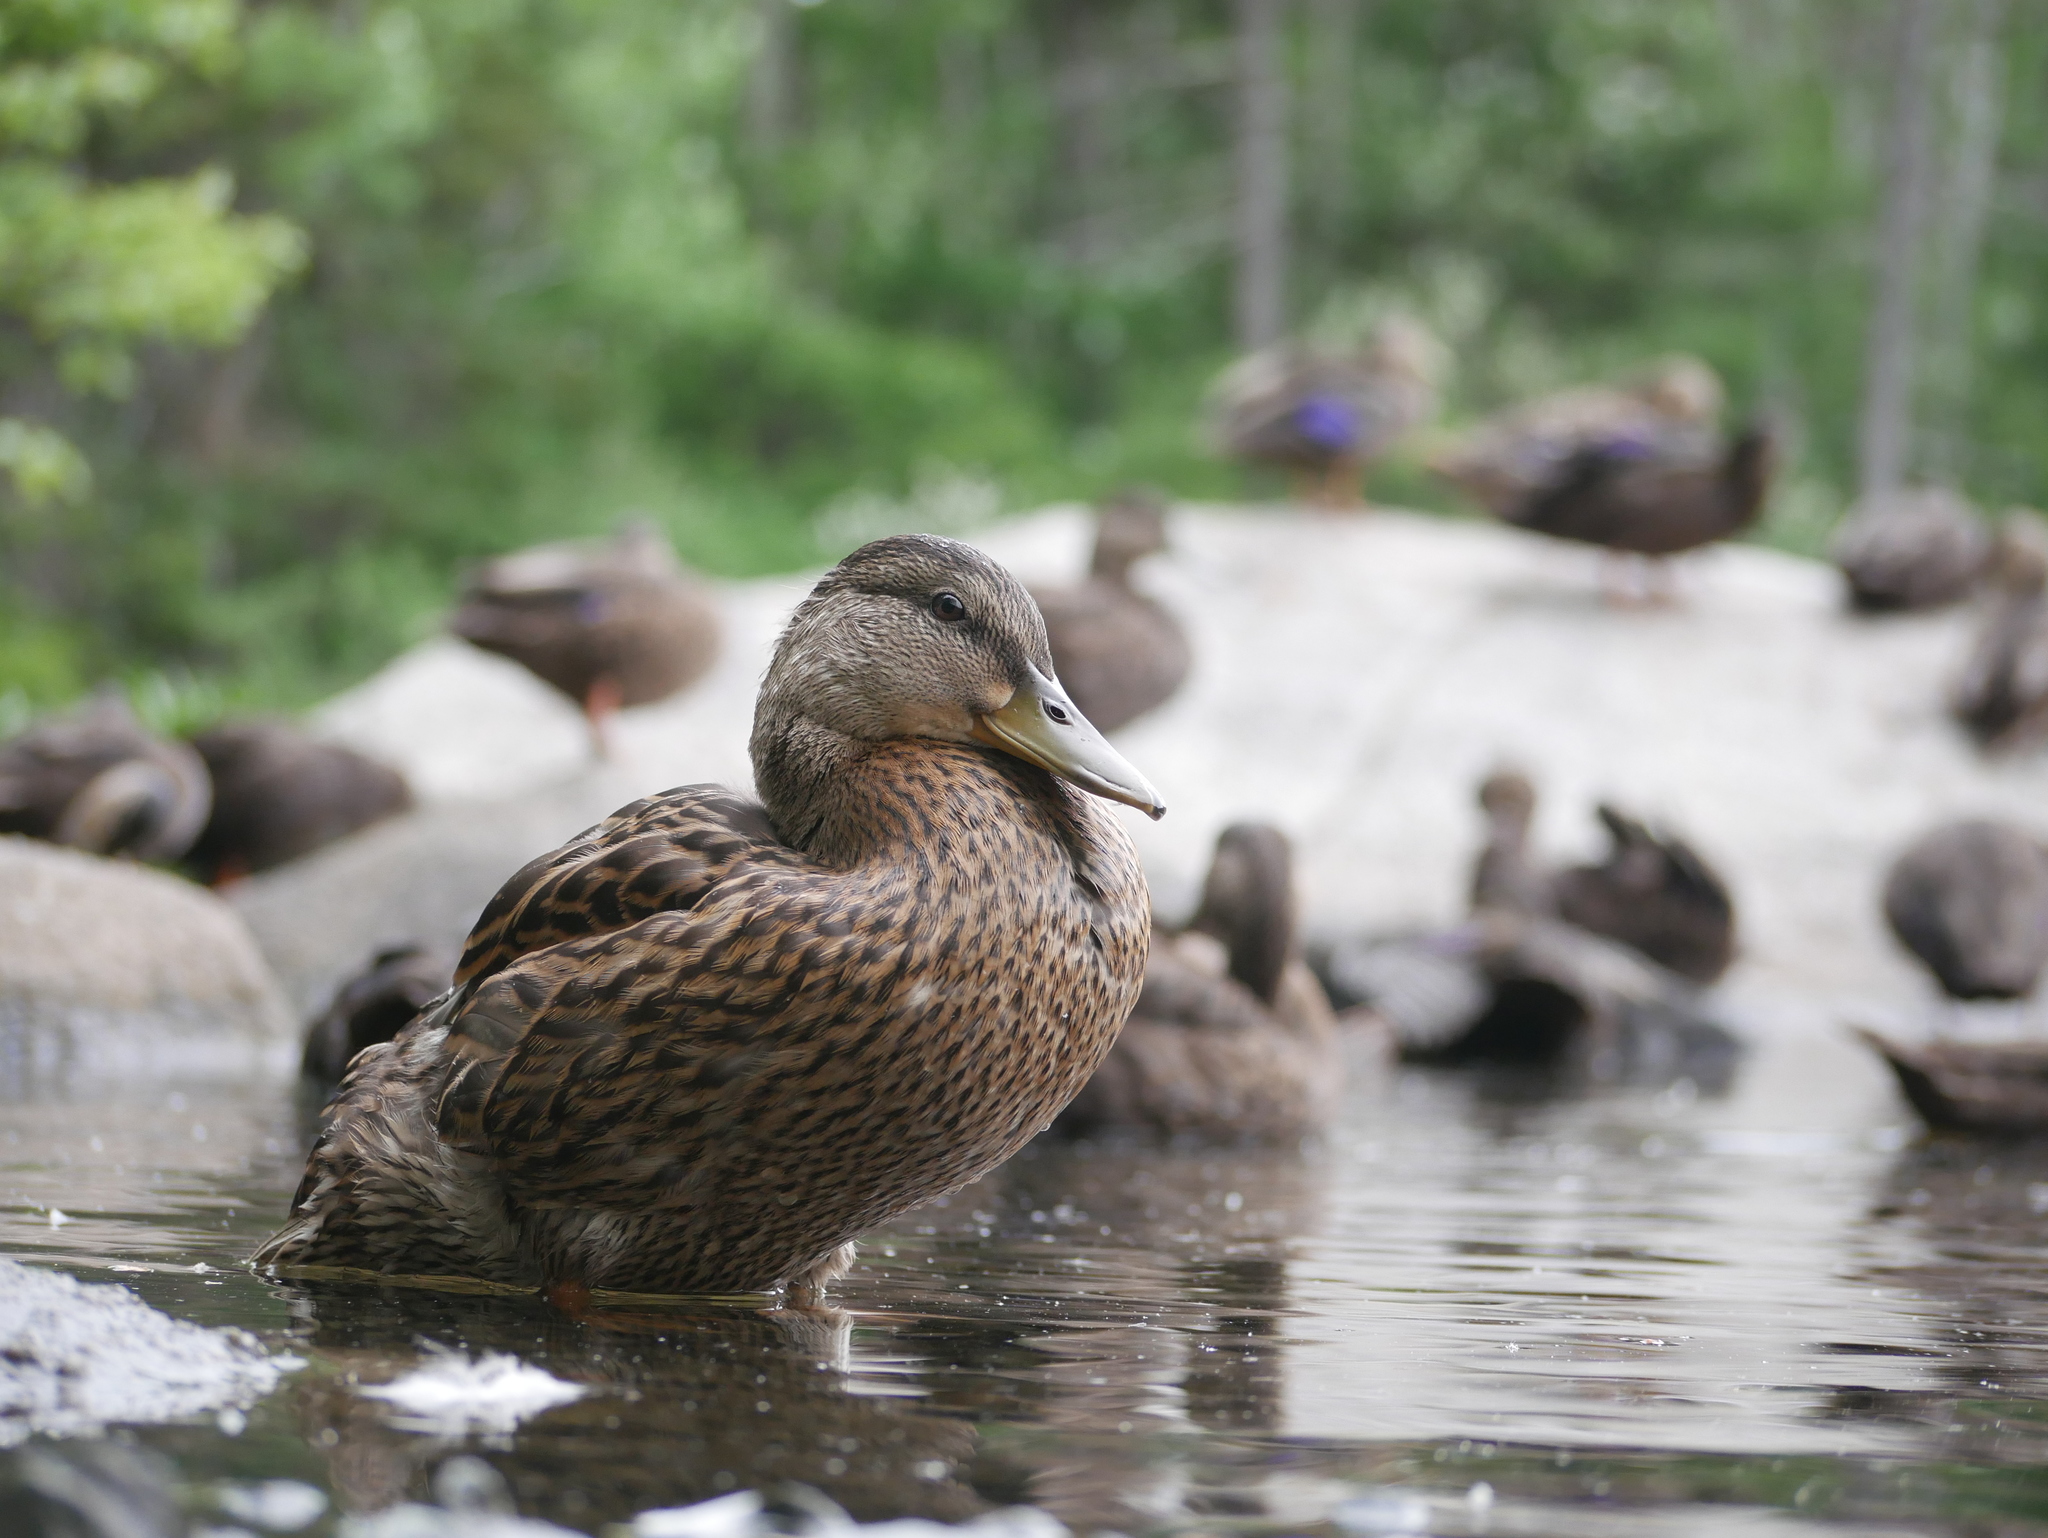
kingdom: Animalia
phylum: Chordata
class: Aves
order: Anseriformes
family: Anatidae
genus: Anas
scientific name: Anas platyrhynchos
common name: Mallard
